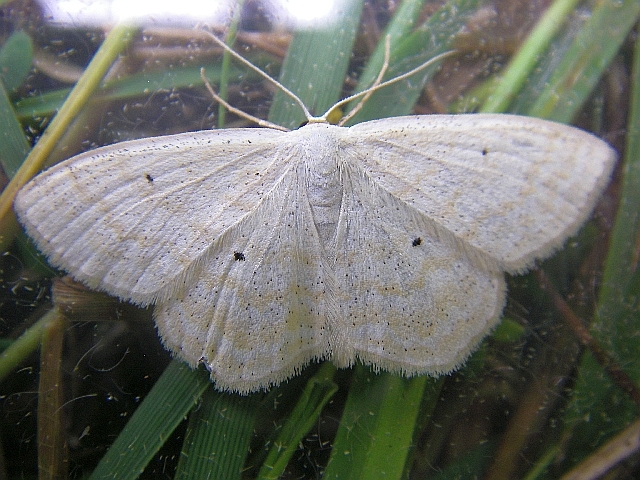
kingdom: Animalia
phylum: Arthropoda
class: Insecta
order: Lepidoptera
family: Geometridae
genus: Scopula
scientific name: Scopula immutata
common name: Lesser cream wave
